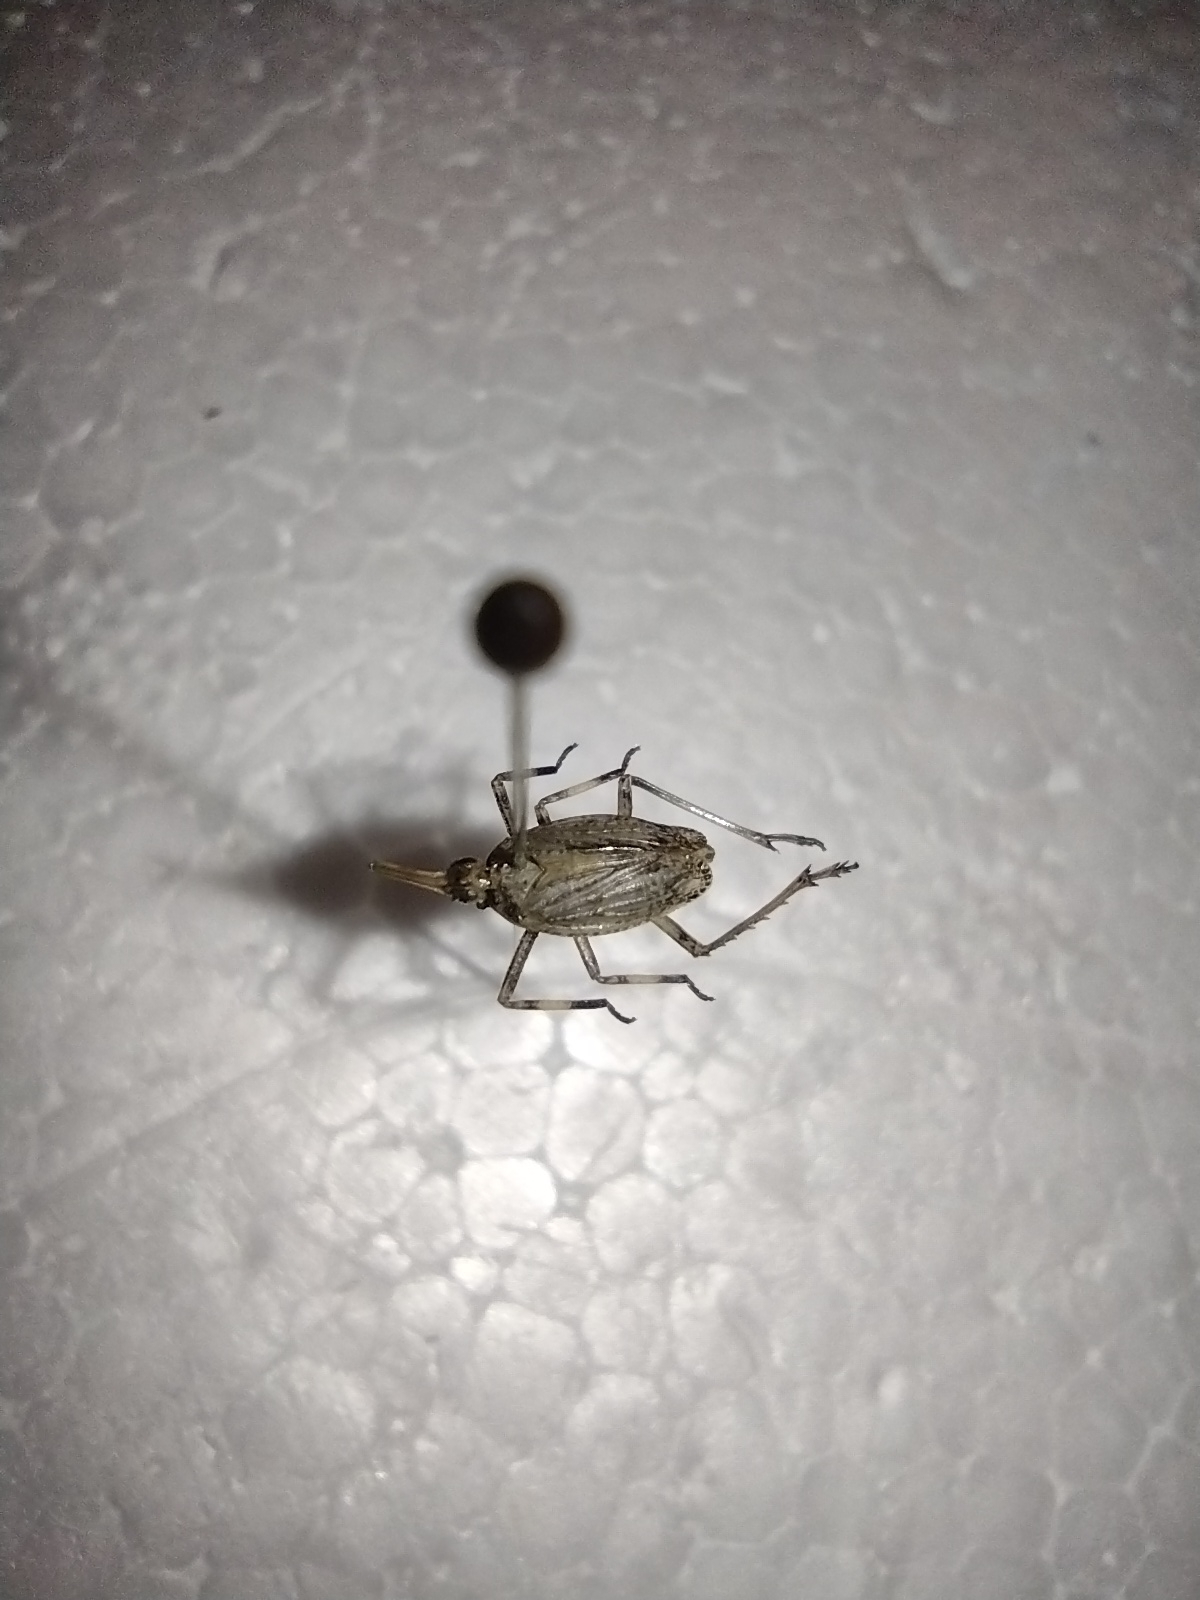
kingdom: Animalia
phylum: Arthropoda
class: Insecta
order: Hemiptera
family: Dictyopharidae
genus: Scolops
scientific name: Scolops sulcipes
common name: Partridge planthopper
